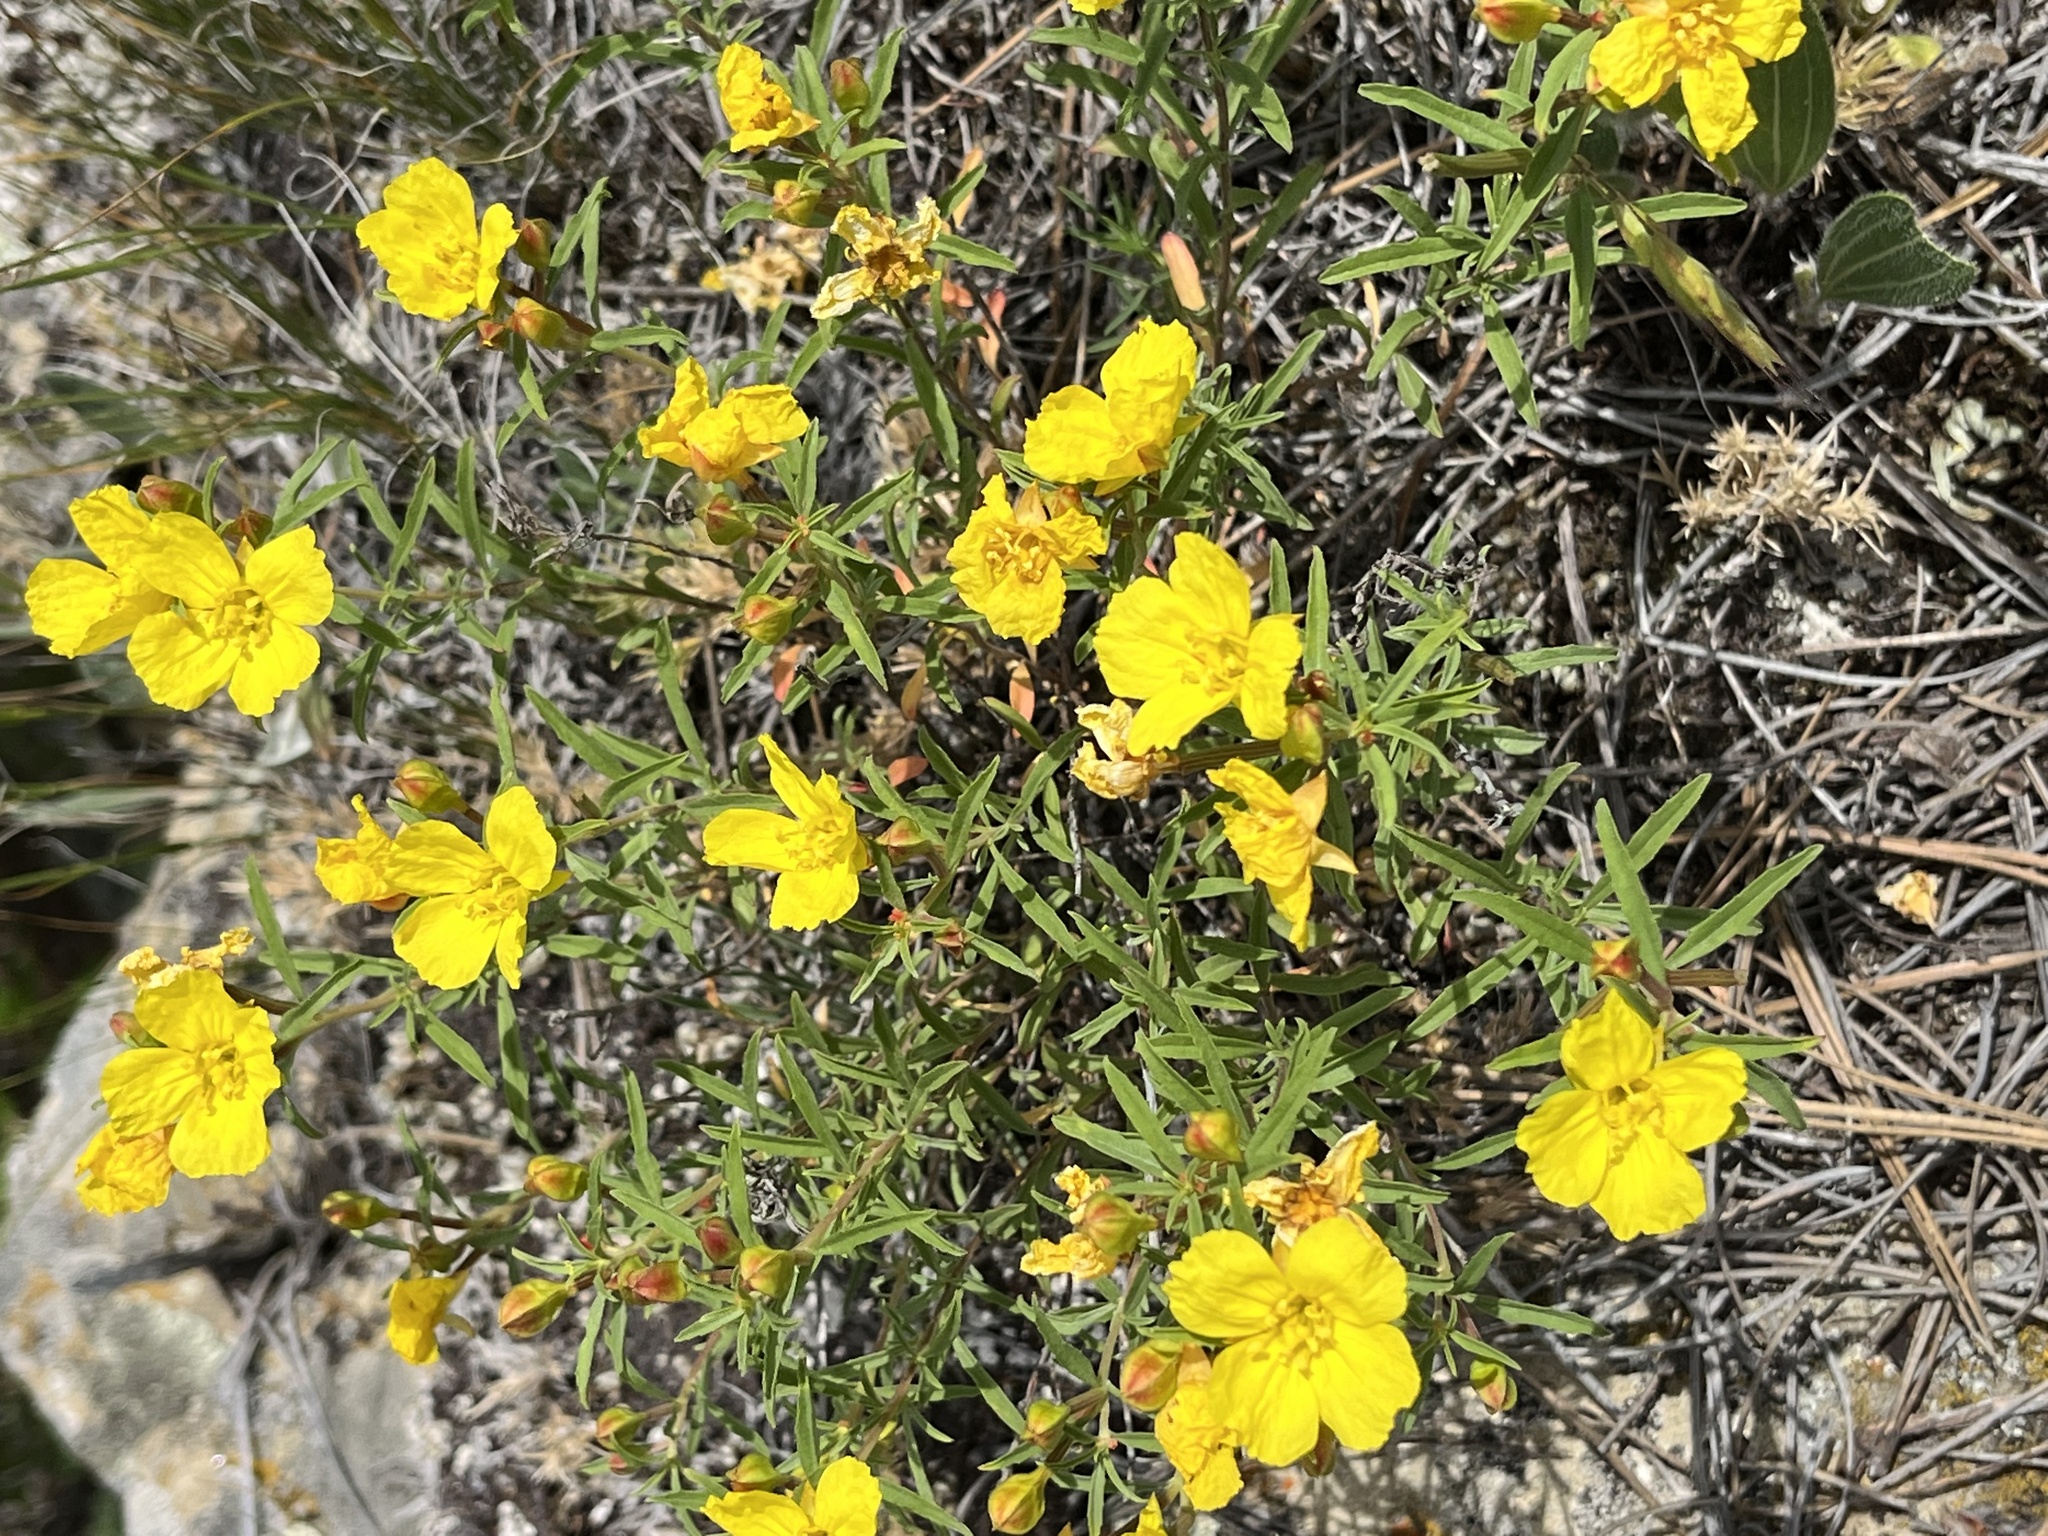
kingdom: Plantae
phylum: Tracheophyta
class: Magnoliopsida
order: Myrtales
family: Onagraceae
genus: Oenothera
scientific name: Oenothera serrulata
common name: Half-shrub calylophus
